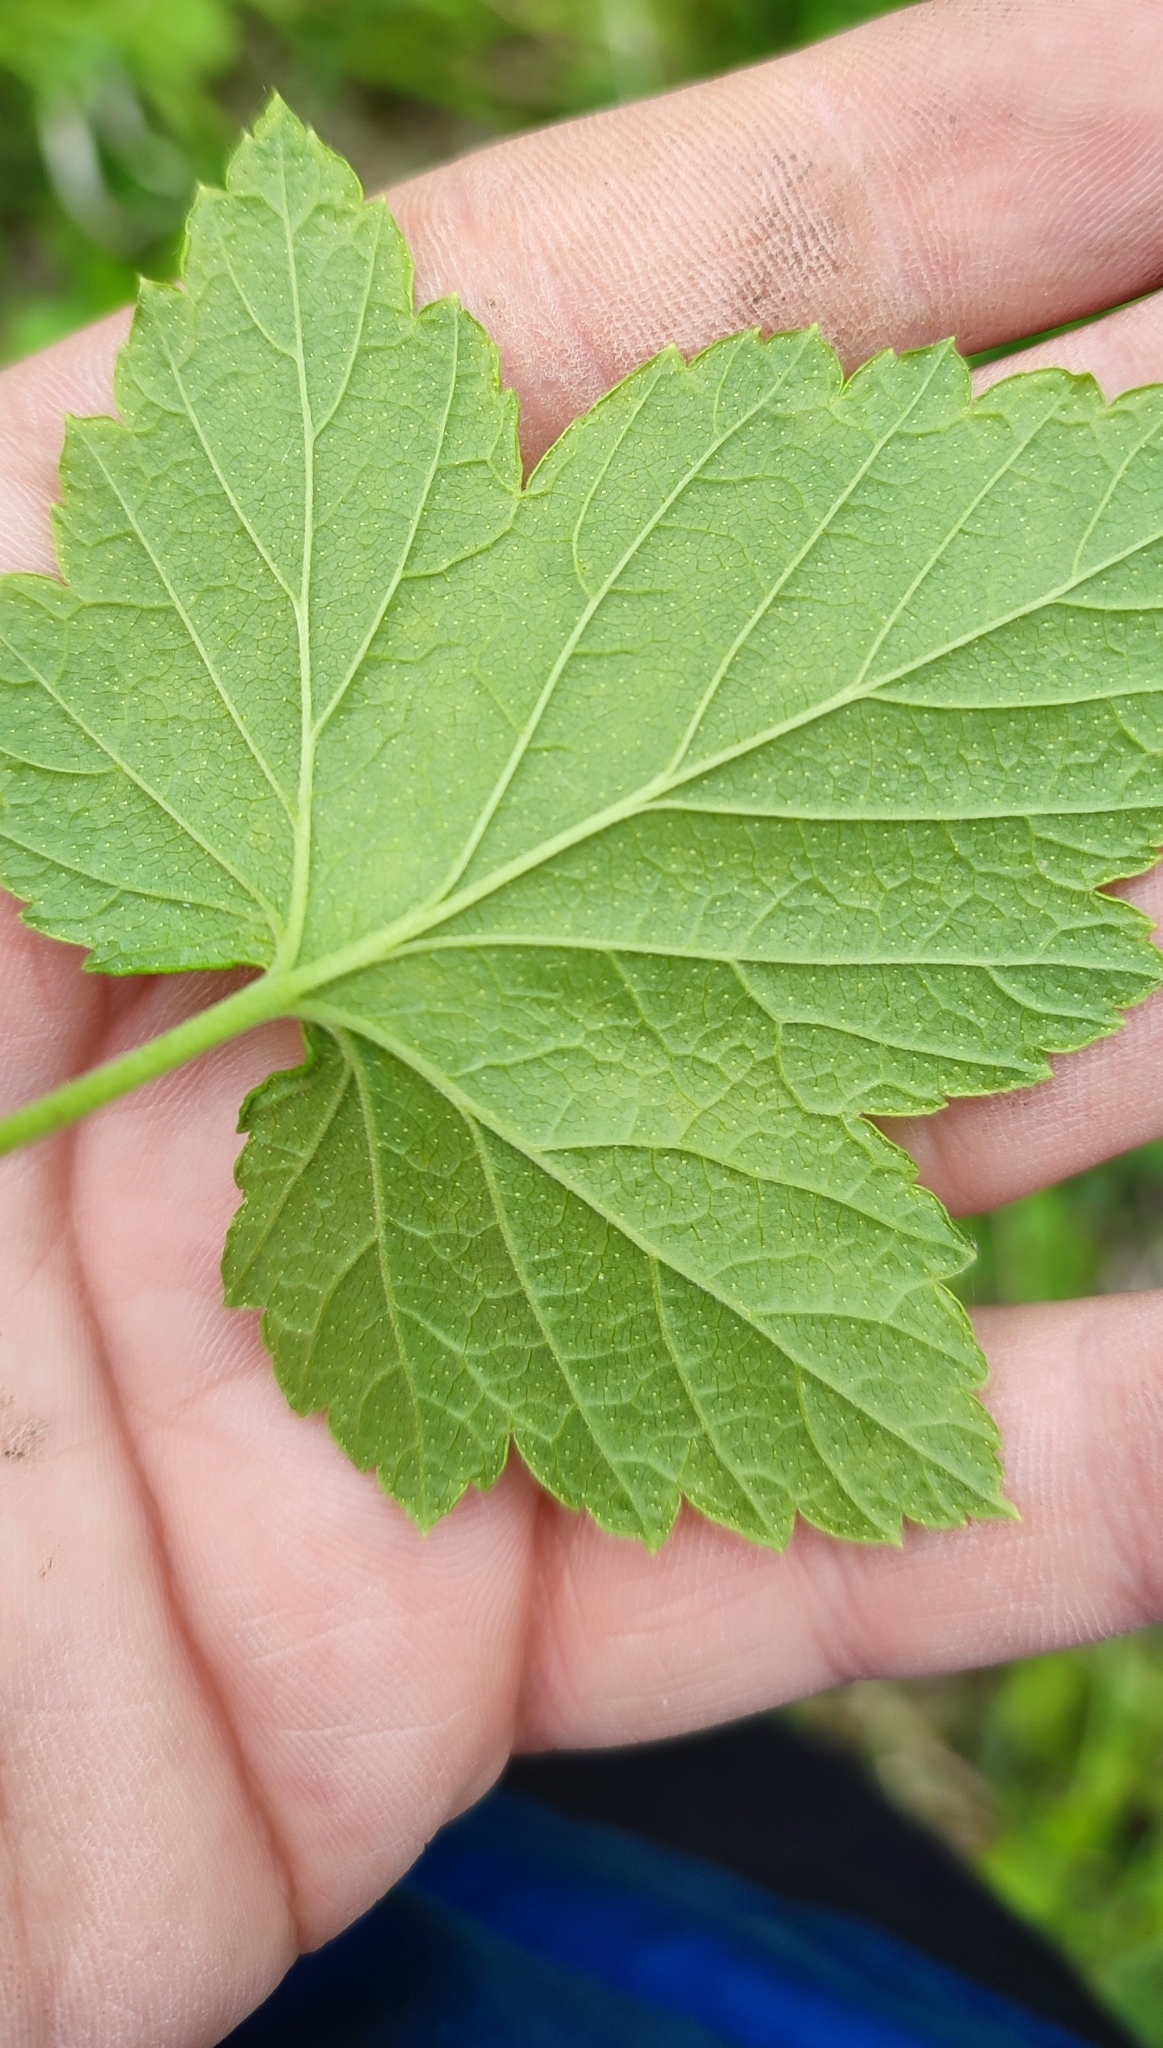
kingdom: Plantae
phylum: Tracheophyta
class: Magnoliopsida
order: Saxifragales
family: Grossulariaceae
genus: Ribes
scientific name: Ribes nigrum
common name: Black currant
